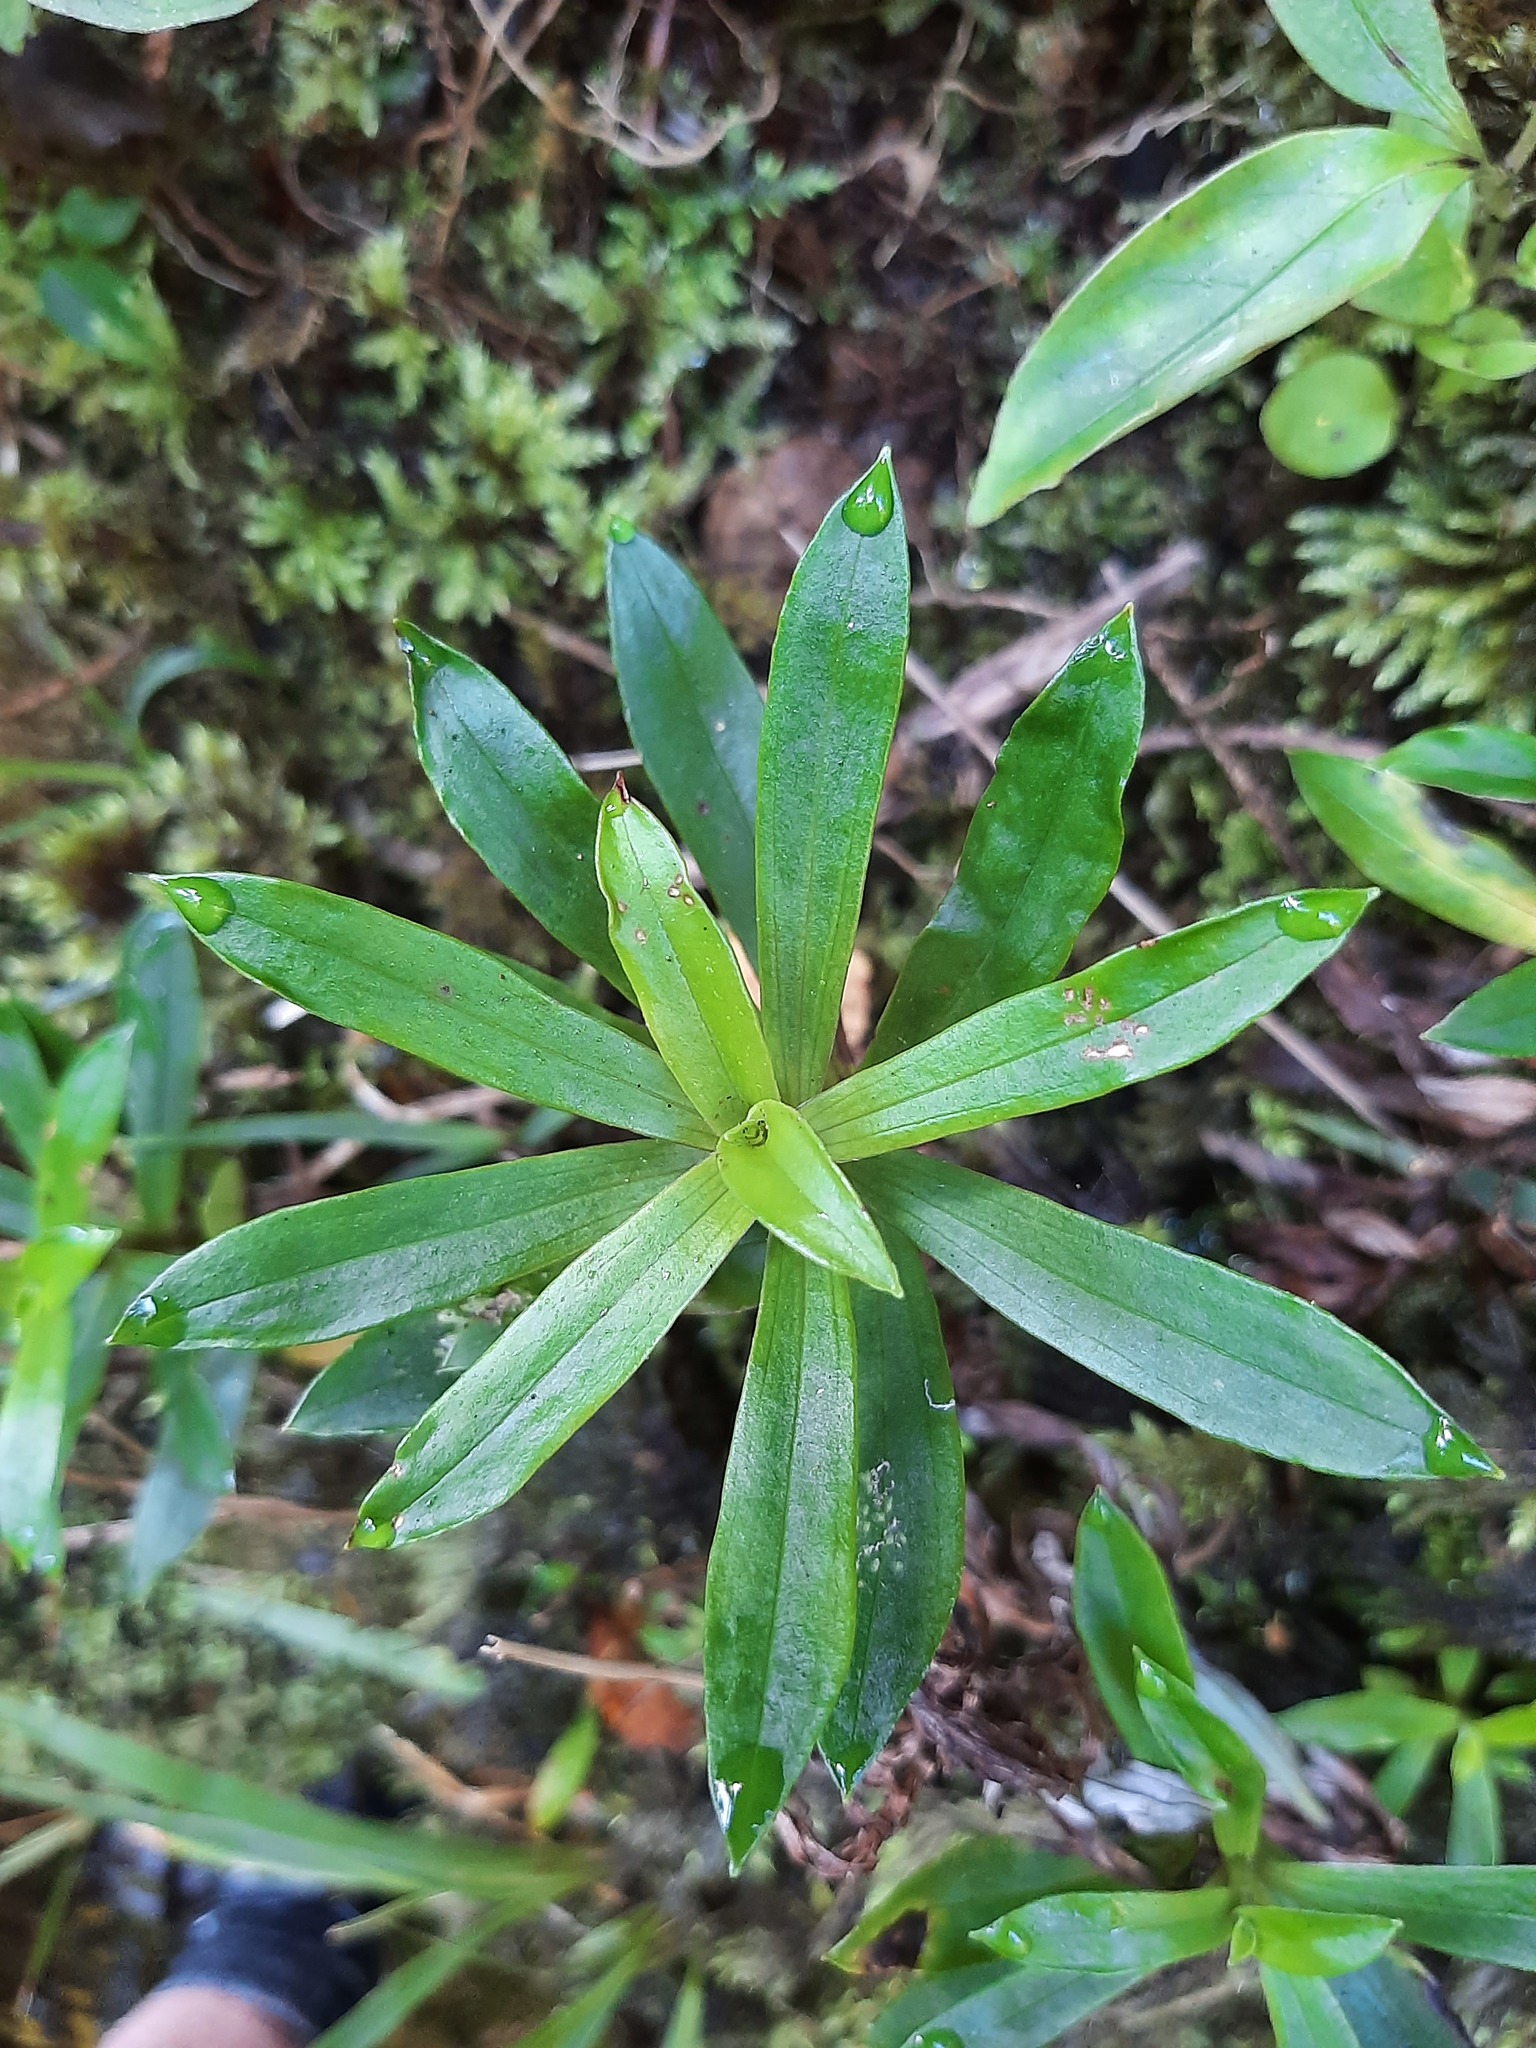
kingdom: Plantae
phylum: Tracheophyta
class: Magnoliopsida
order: Asterales
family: Asteraceae
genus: Anaphalioides
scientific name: Anaphalioides trinervis
